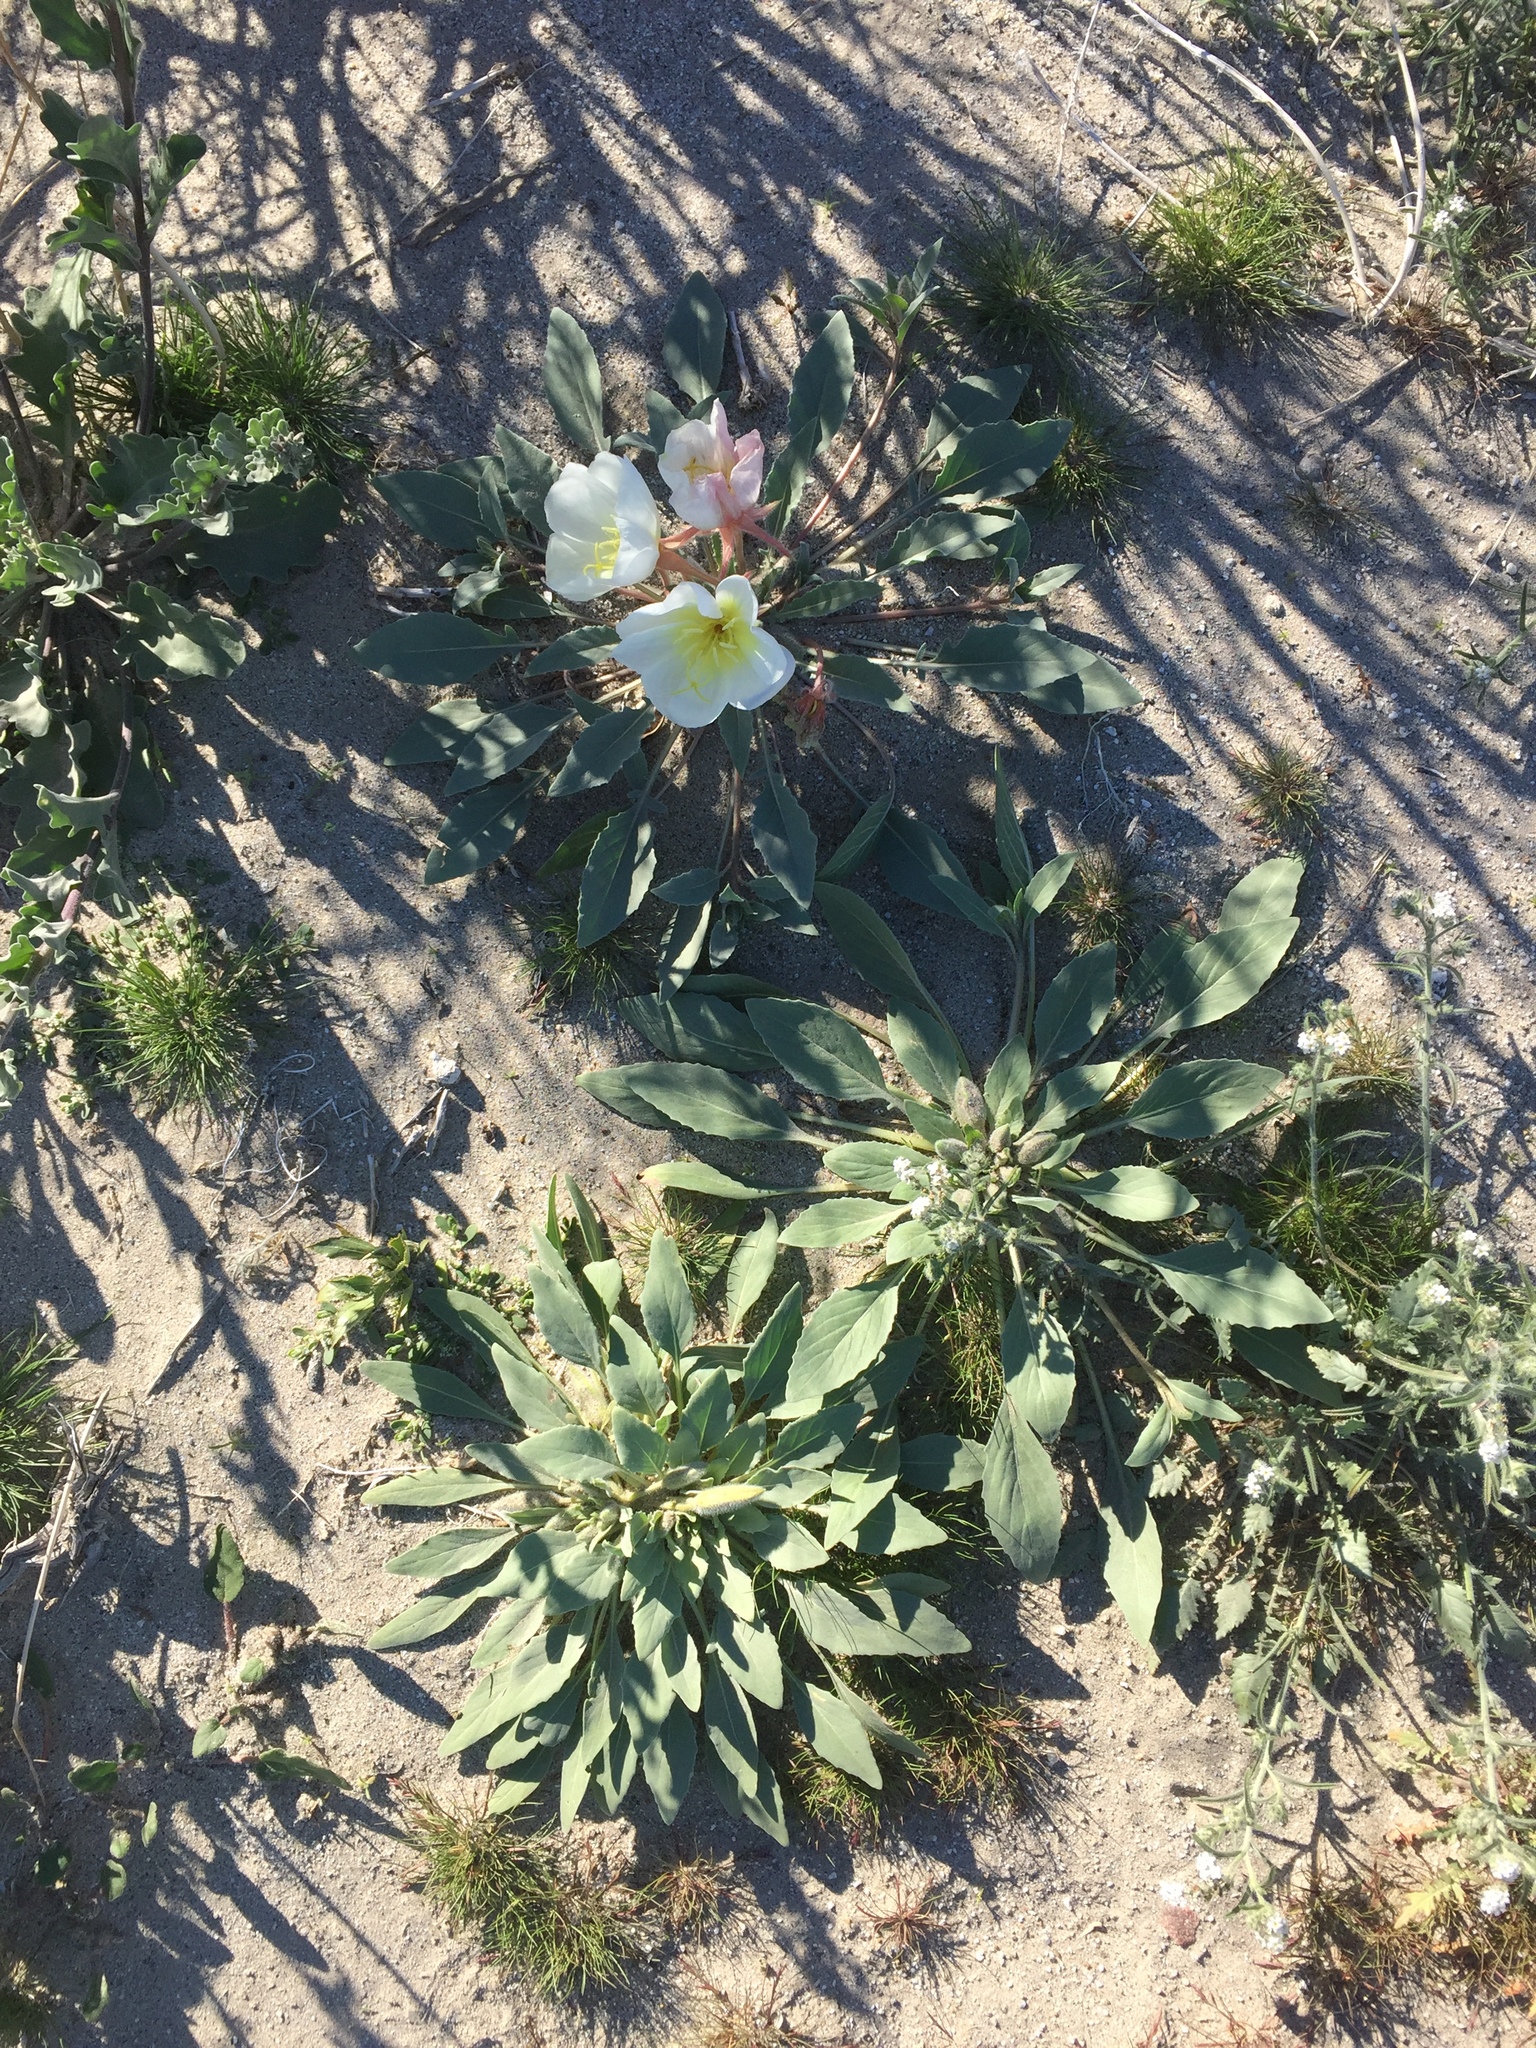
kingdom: Plantae
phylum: Tracheophyta
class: Magnoliopsida
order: Myrtales
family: Onagraceae
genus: Oenothera
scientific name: Oenothera deltoides
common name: Basket evening-primrose
